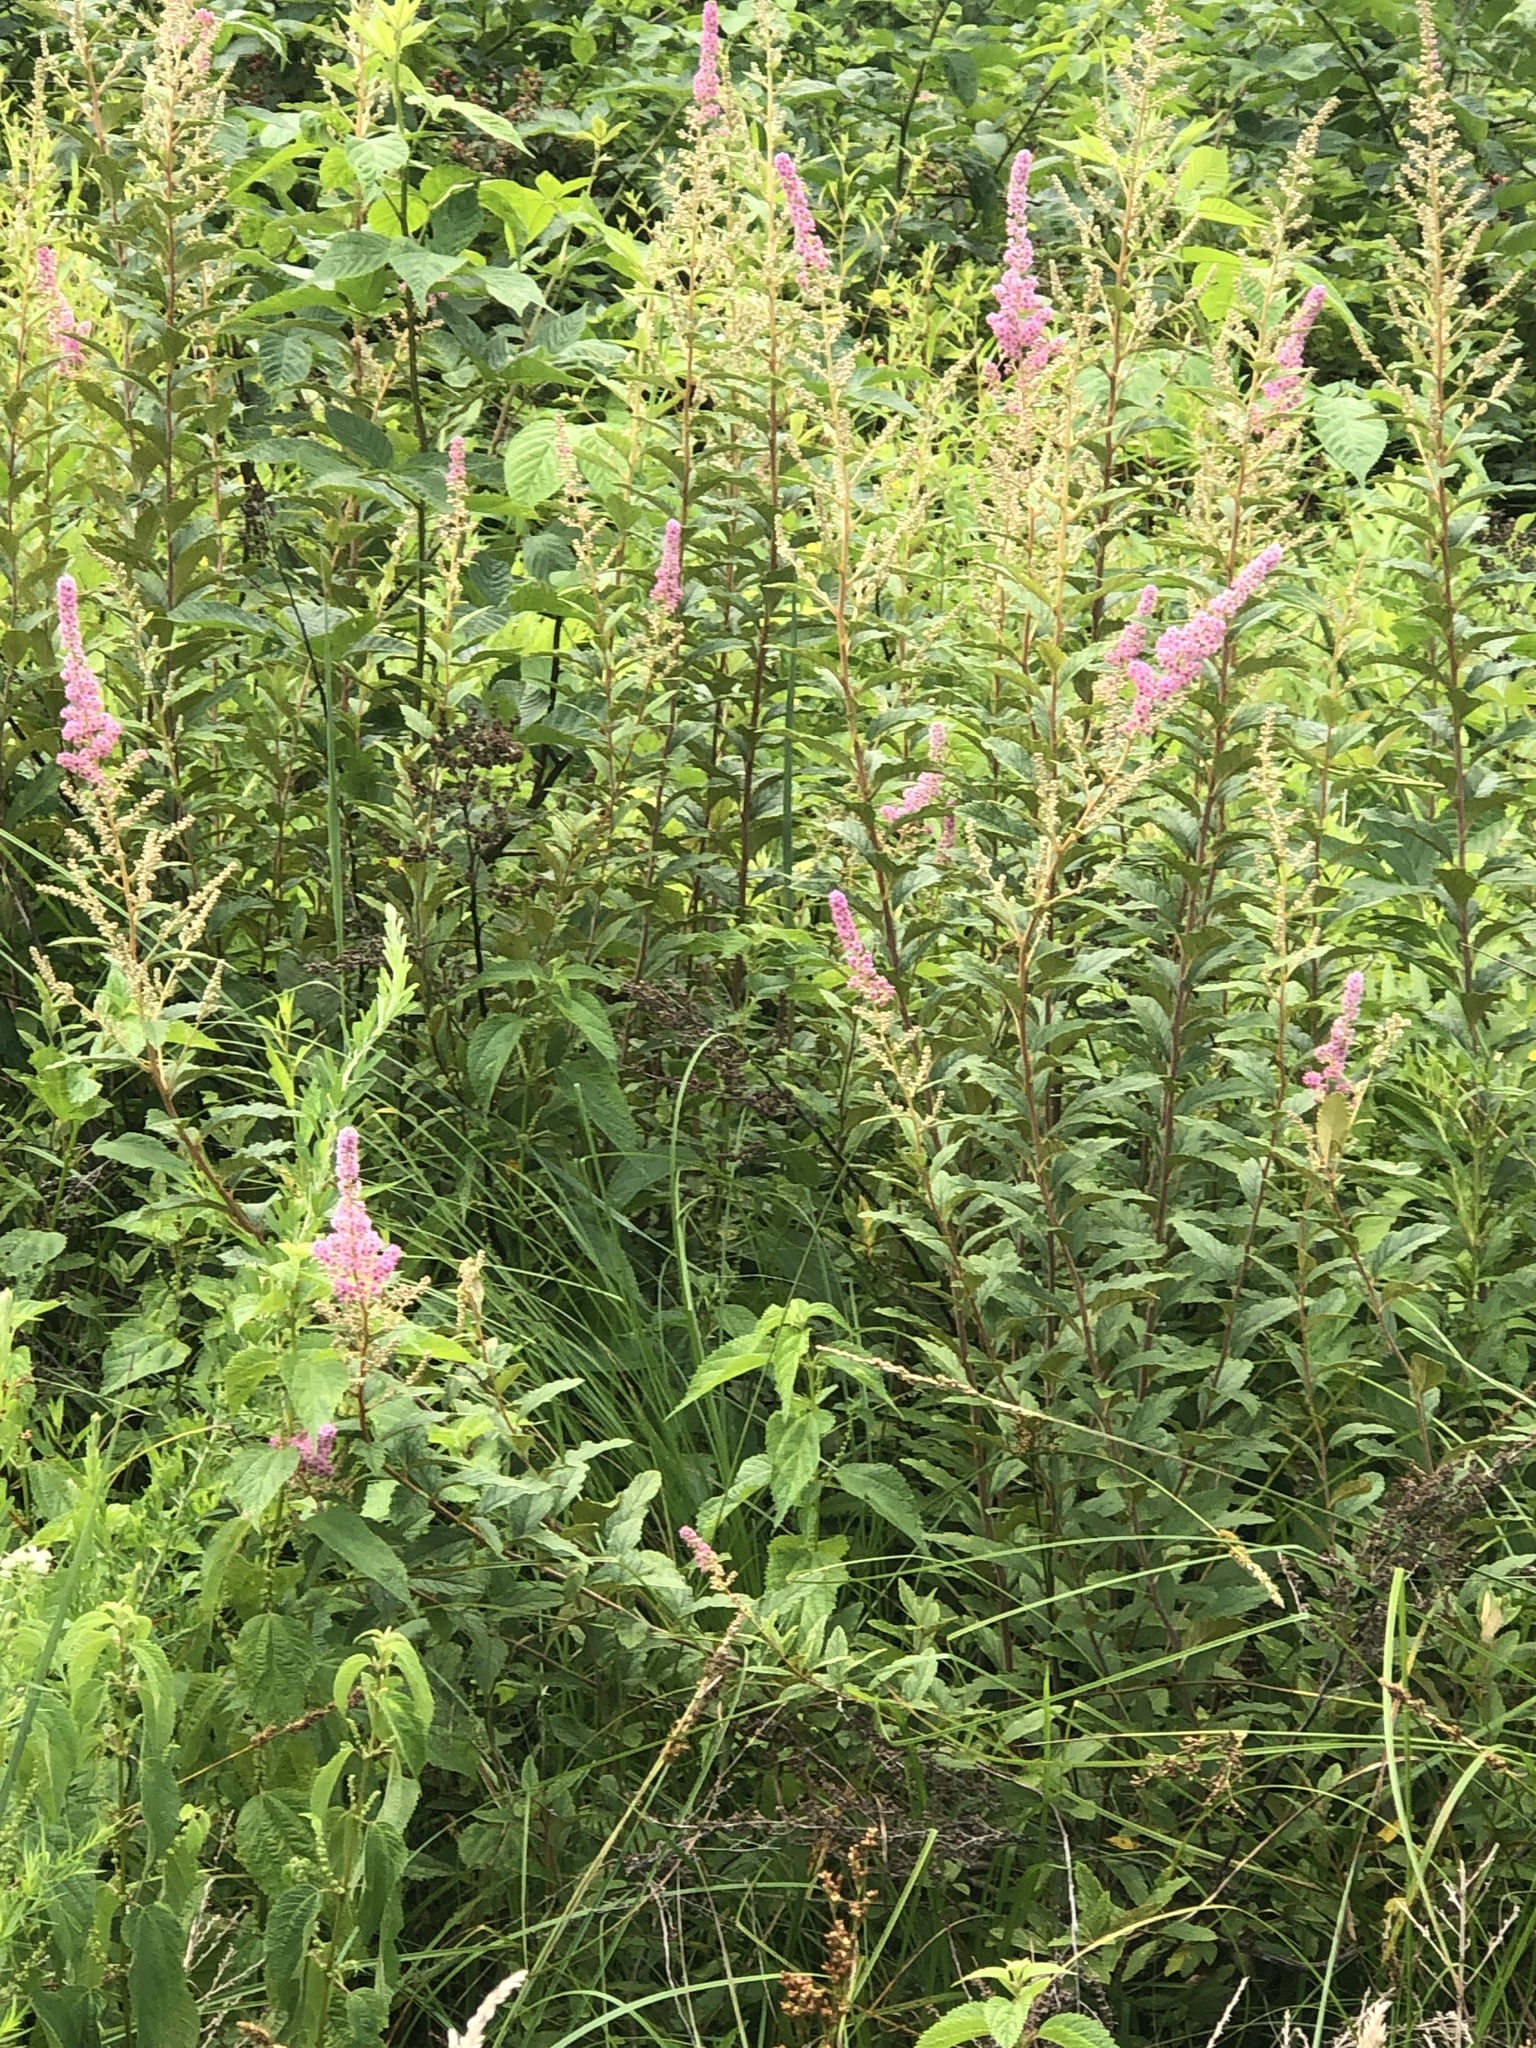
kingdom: Plantae
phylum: Tracheophyta
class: Magnoliopsida
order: Rosales
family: Rosaceae
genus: Spiraea
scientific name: Spiraea tomentosa
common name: Hardhack
